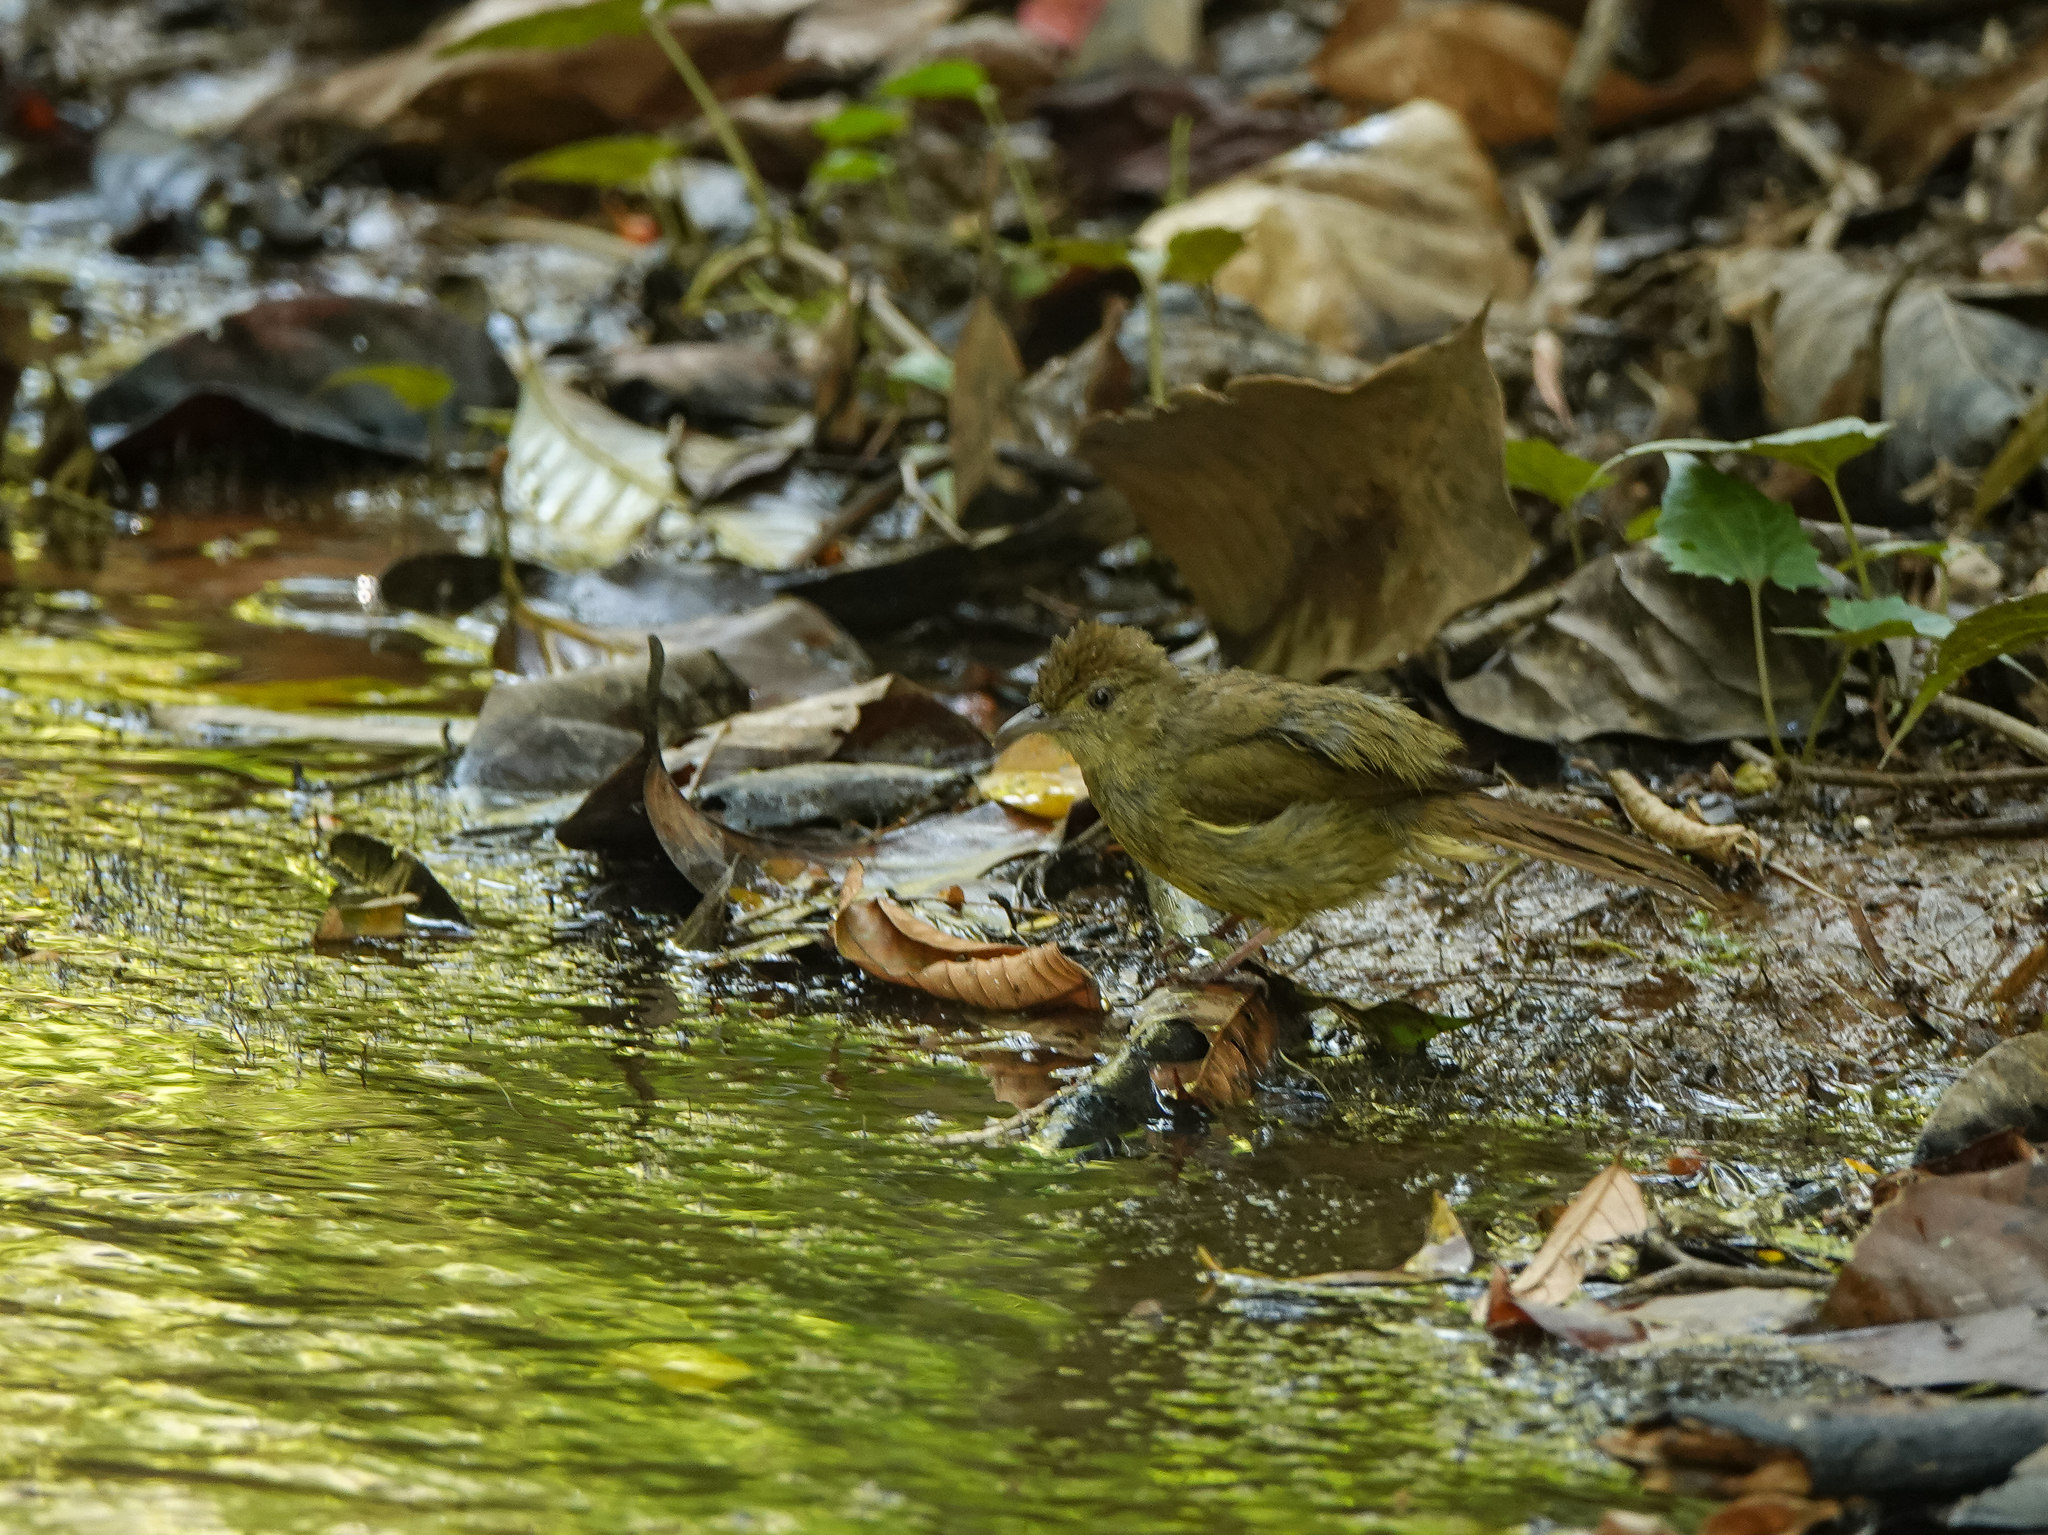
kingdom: Animalia
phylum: Chordata
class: Aves
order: Passeriformes
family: Pycnonotidae
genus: Iole
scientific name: Iole virescens
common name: Olive bulbul
